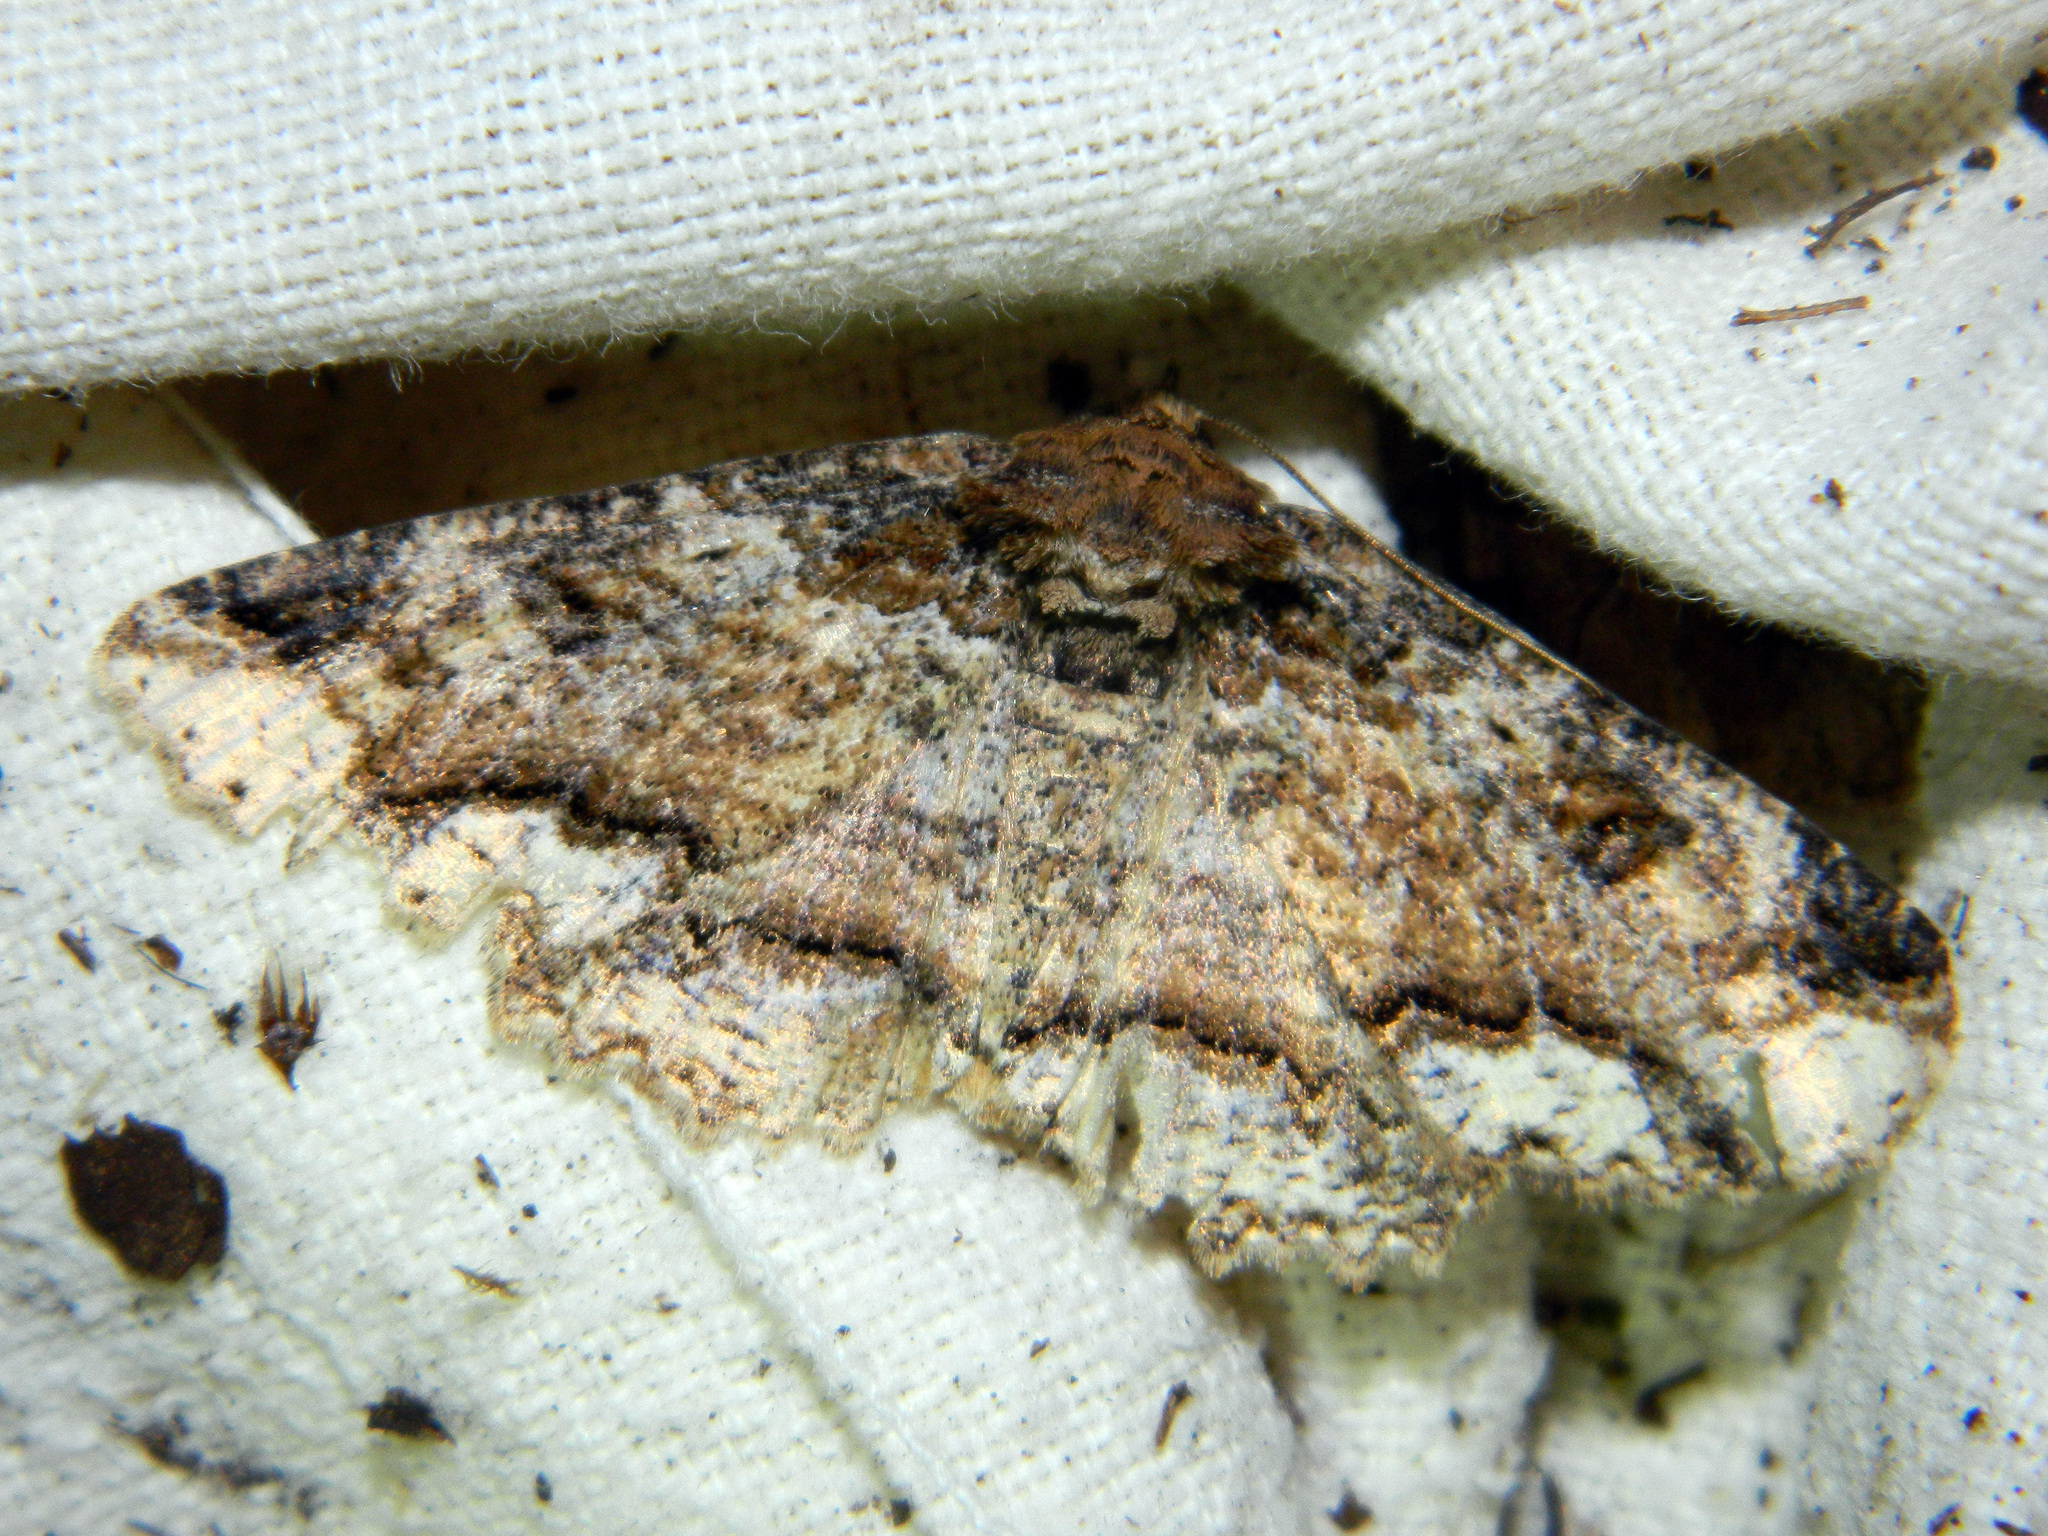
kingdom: Animalia
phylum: Arthropoda
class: Insecta
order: Lepidoptera
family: Erebidae
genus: Zale
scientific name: Zale minerea
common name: Colorful zale moth
